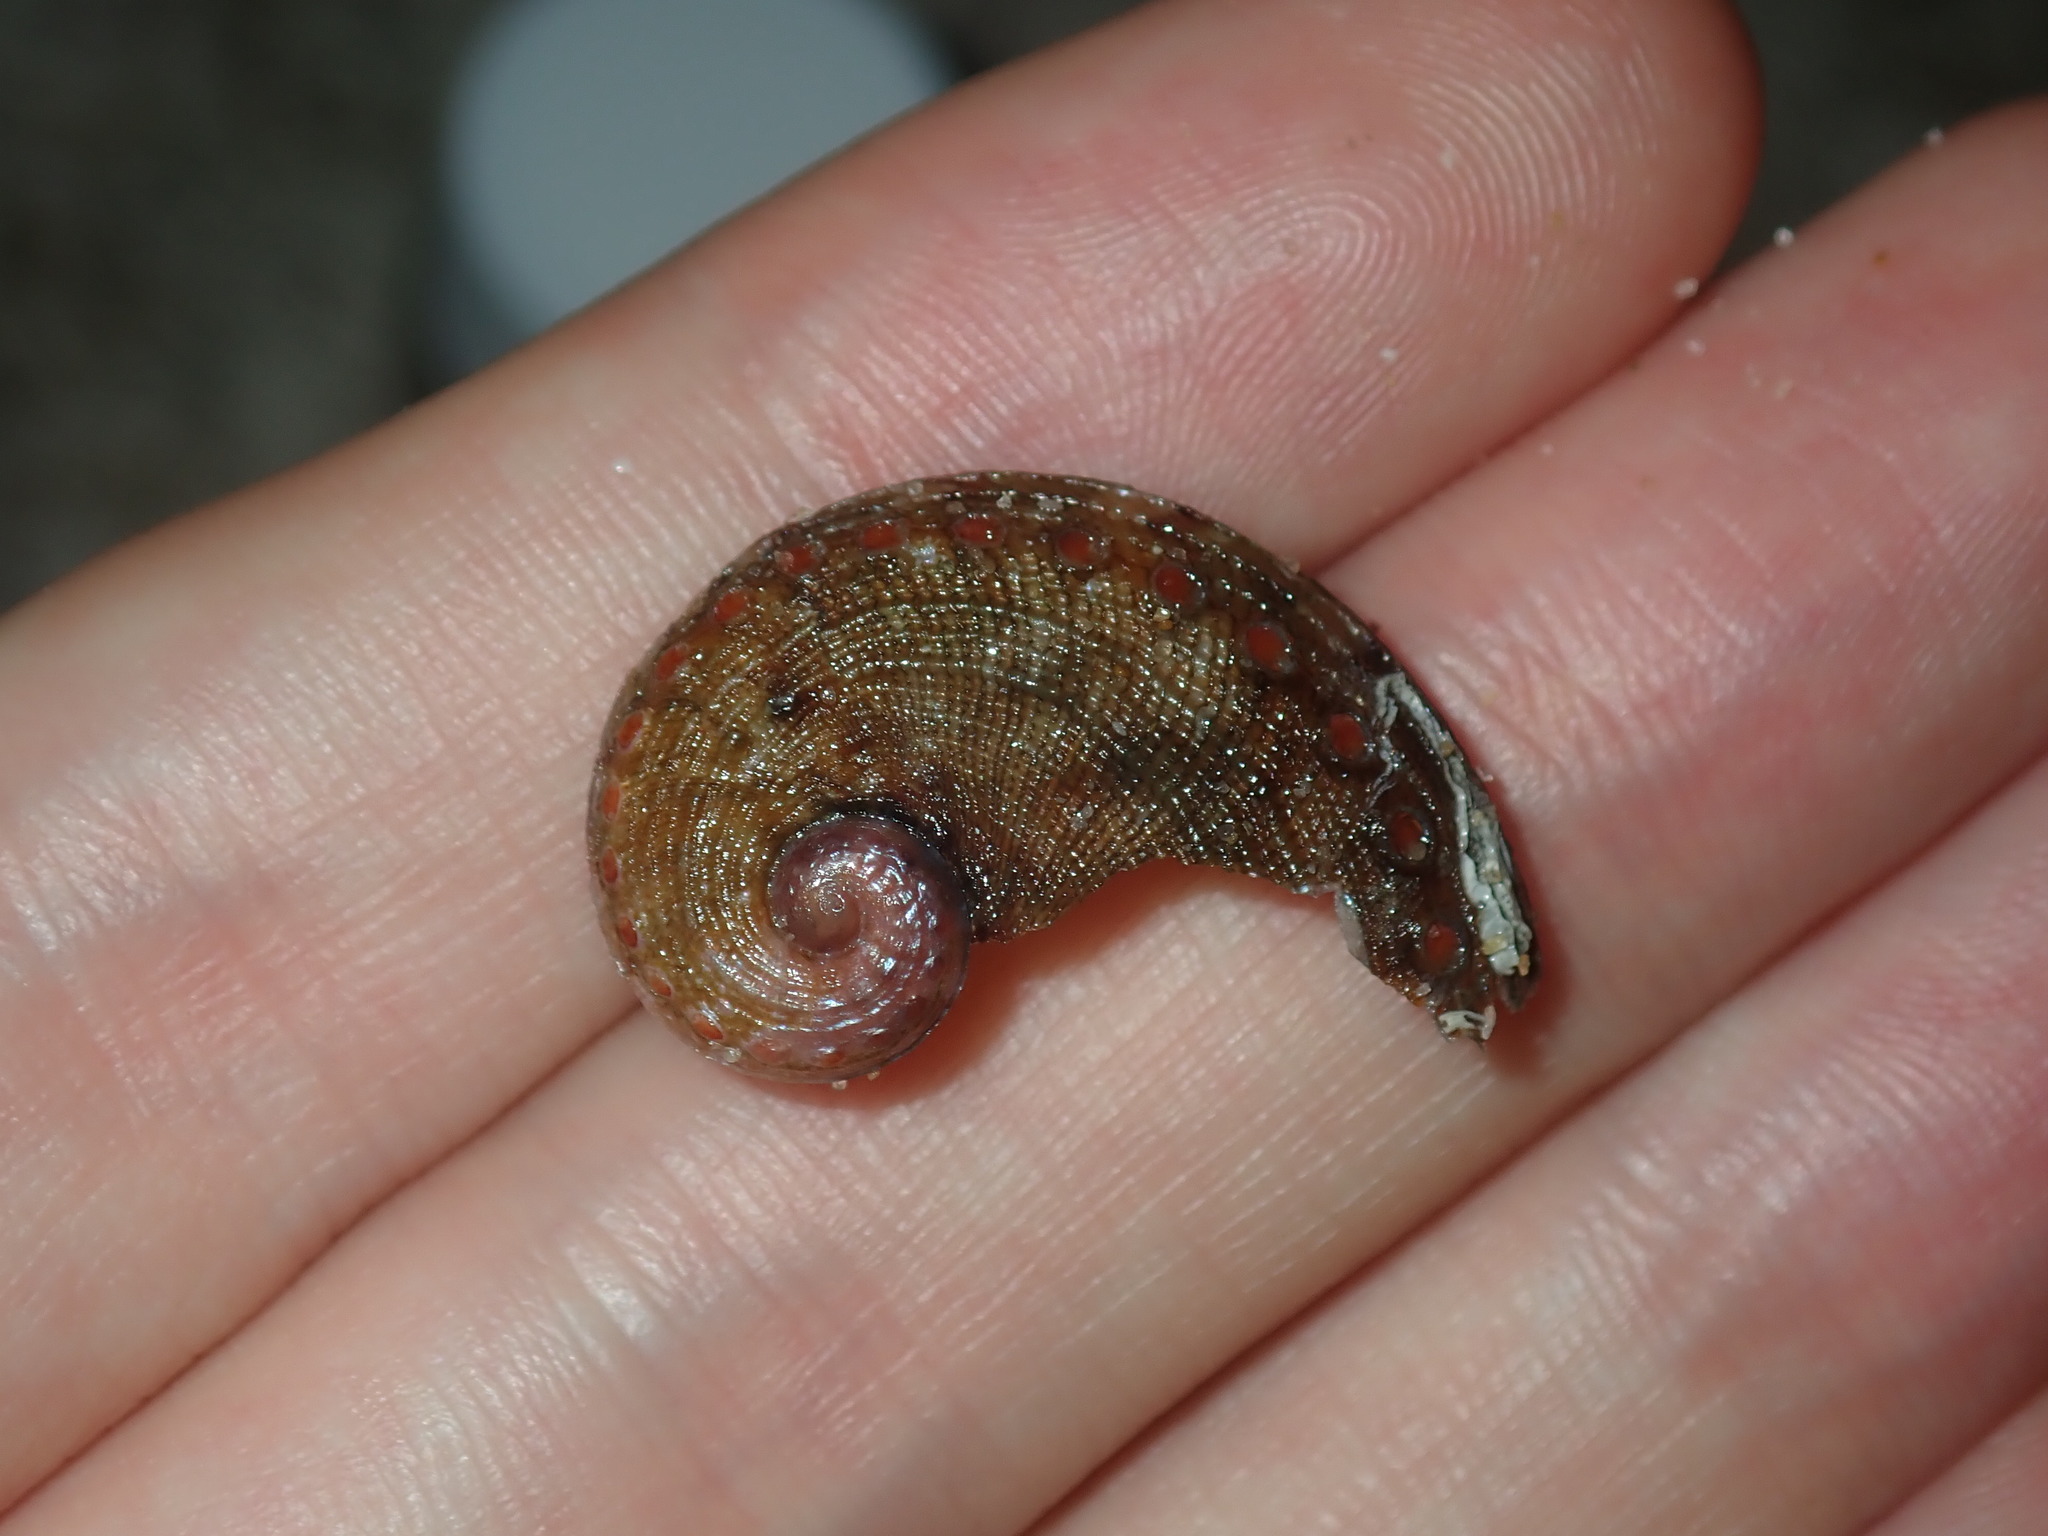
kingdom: Animalia
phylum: Mollusca
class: Gastropoda
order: Lepetellida
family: Haliotidae
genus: Haliotis
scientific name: Haliotis coccoradiata
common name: Reddish-rayed abalone
